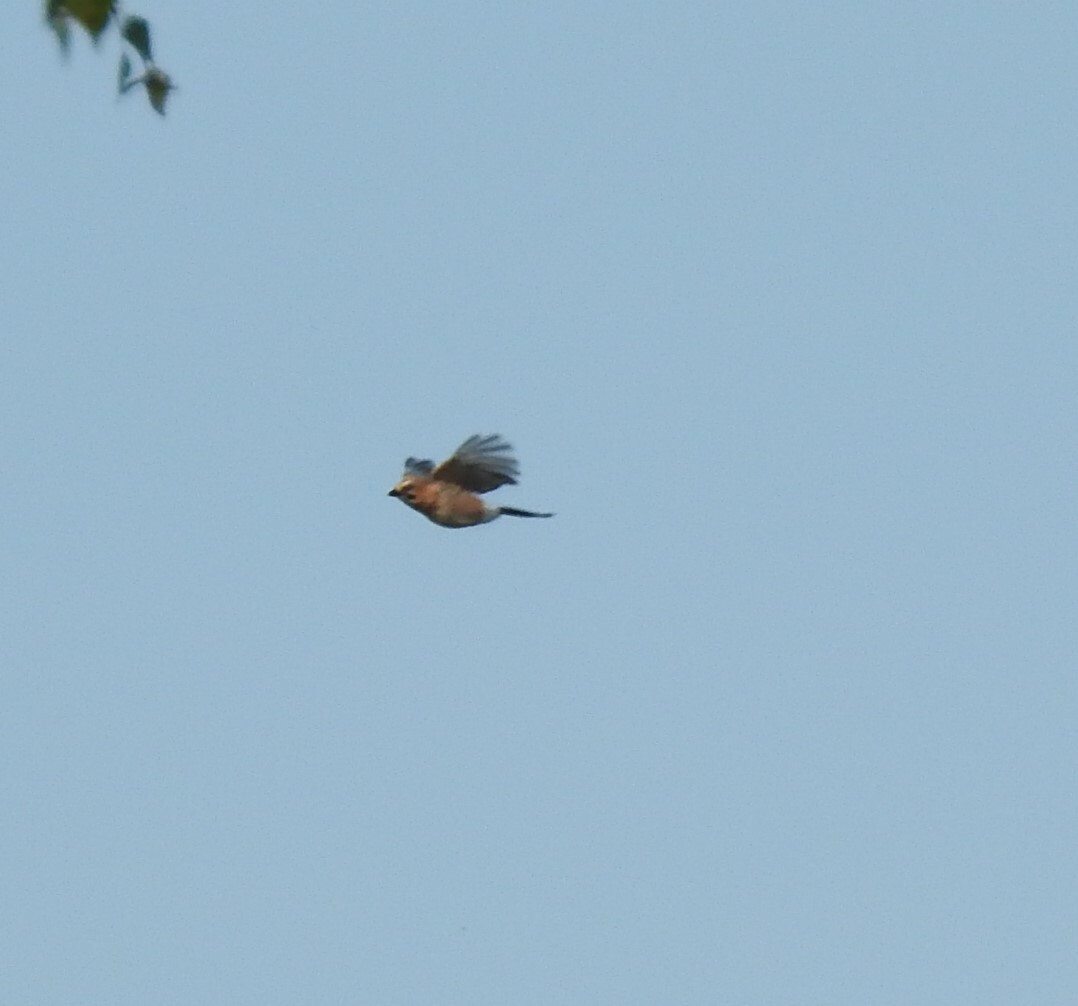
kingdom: Animalia
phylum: Chordata
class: Aves
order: Passeriformes
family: Corvidae
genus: Garrulus
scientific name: Garrulus glandarius
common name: Eurasian jay
